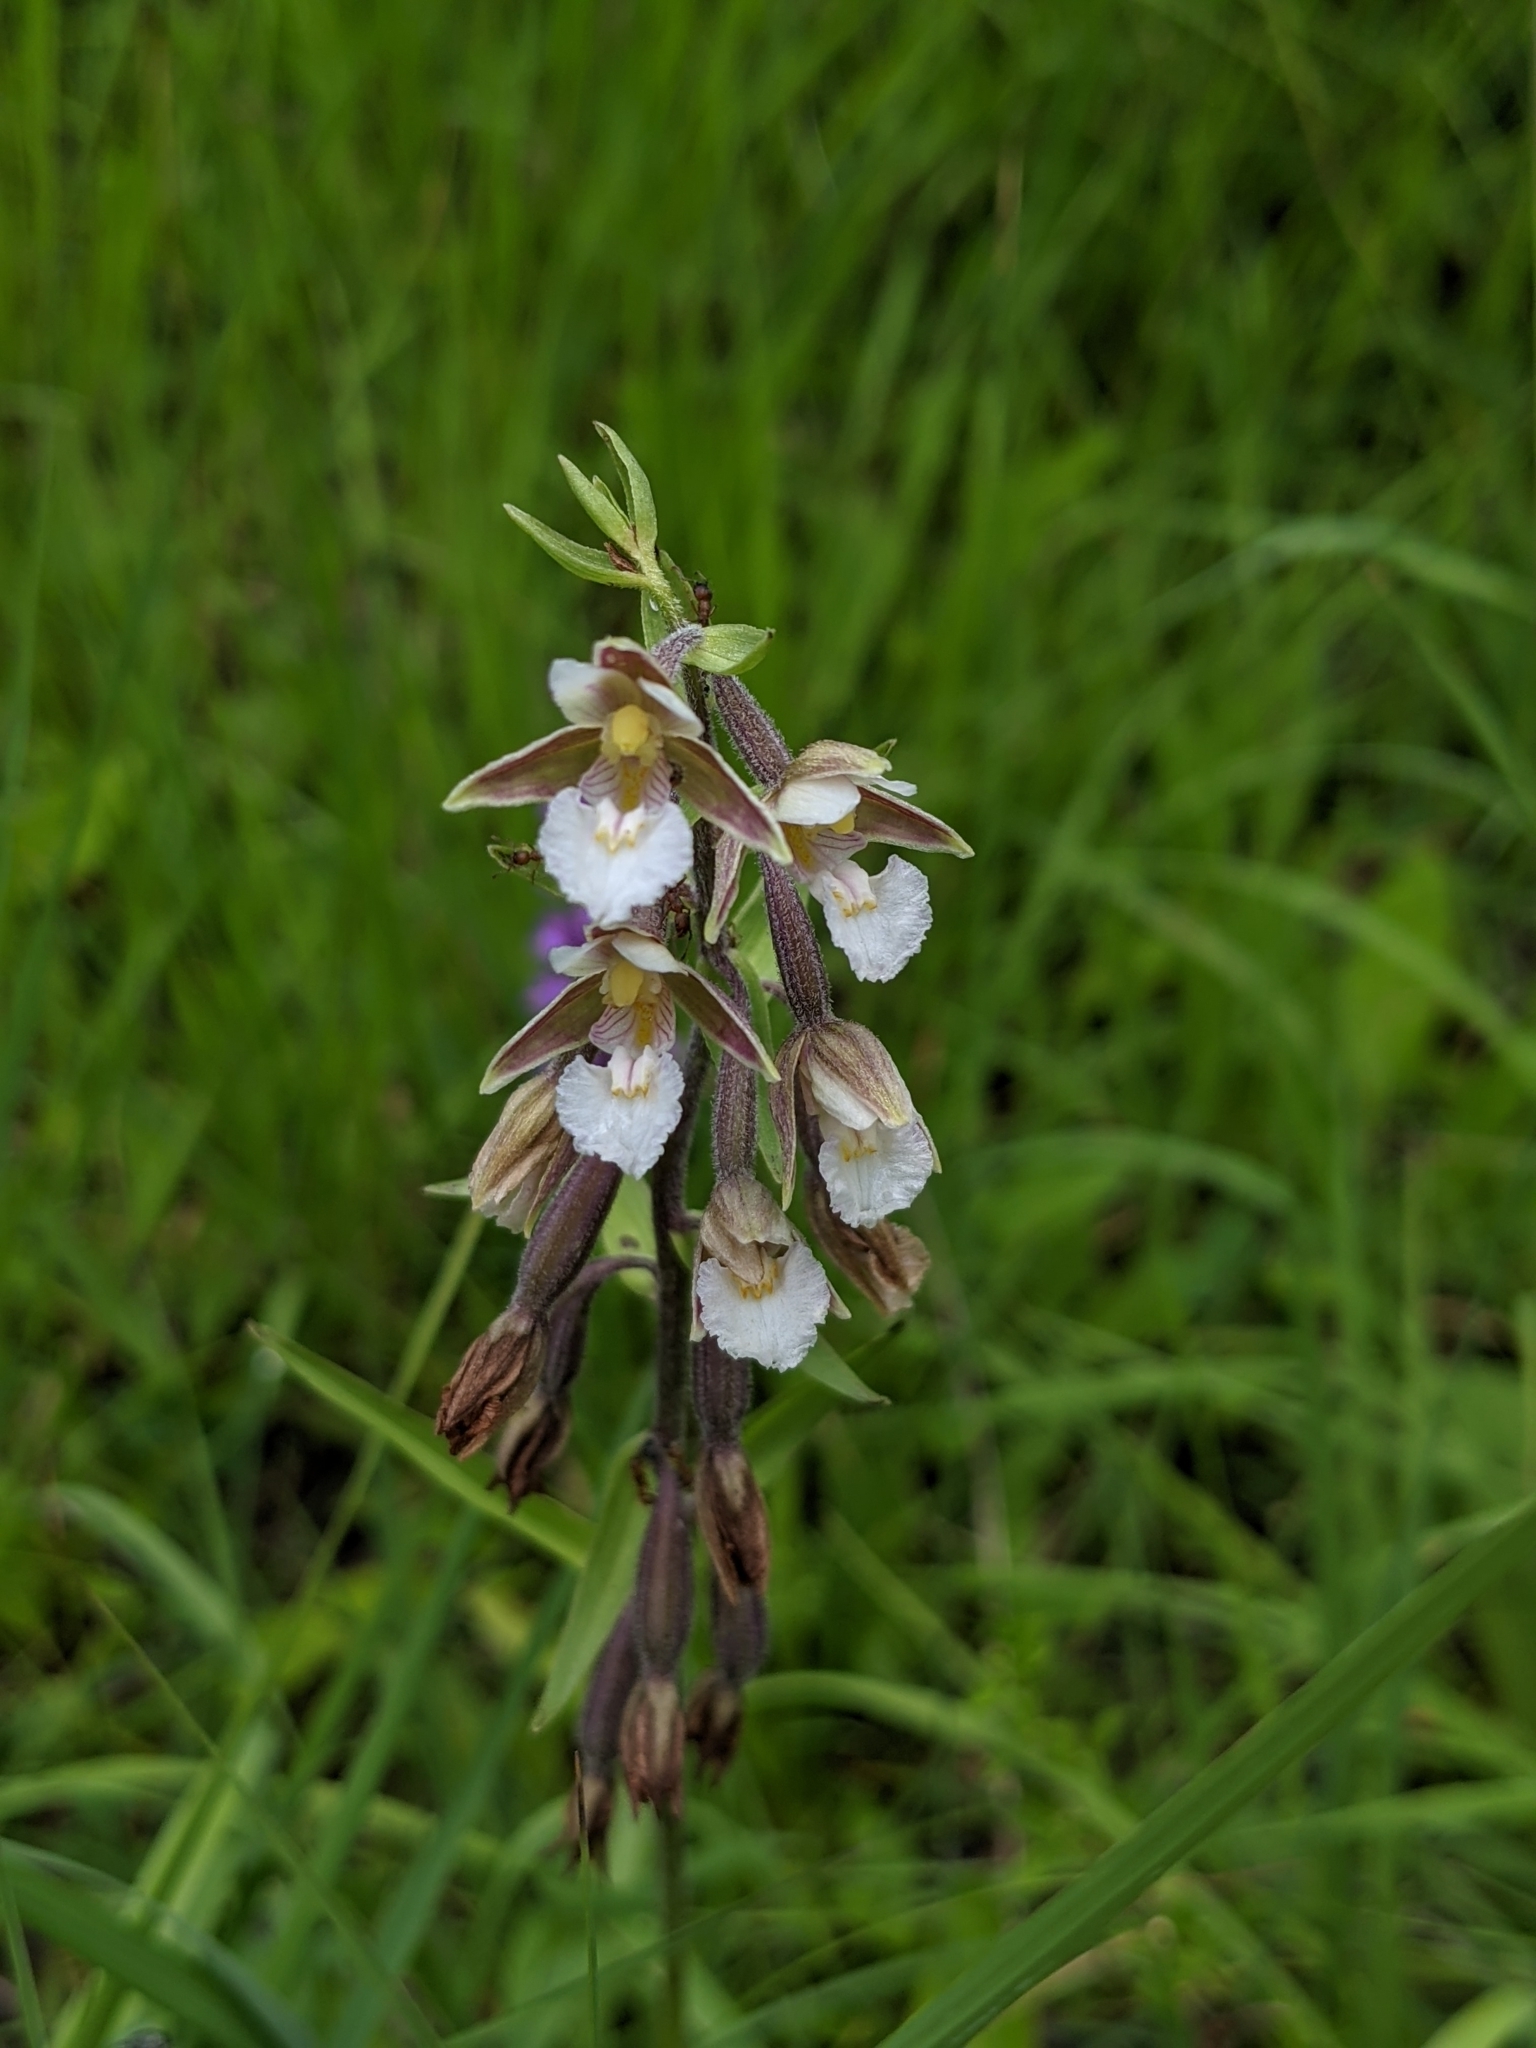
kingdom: Plantae
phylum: Tracheophyta
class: Liliopsida
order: Asparagales
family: Orchidaceae
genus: Epipactis
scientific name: Epipactis palustris
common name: Marsh helleborine
